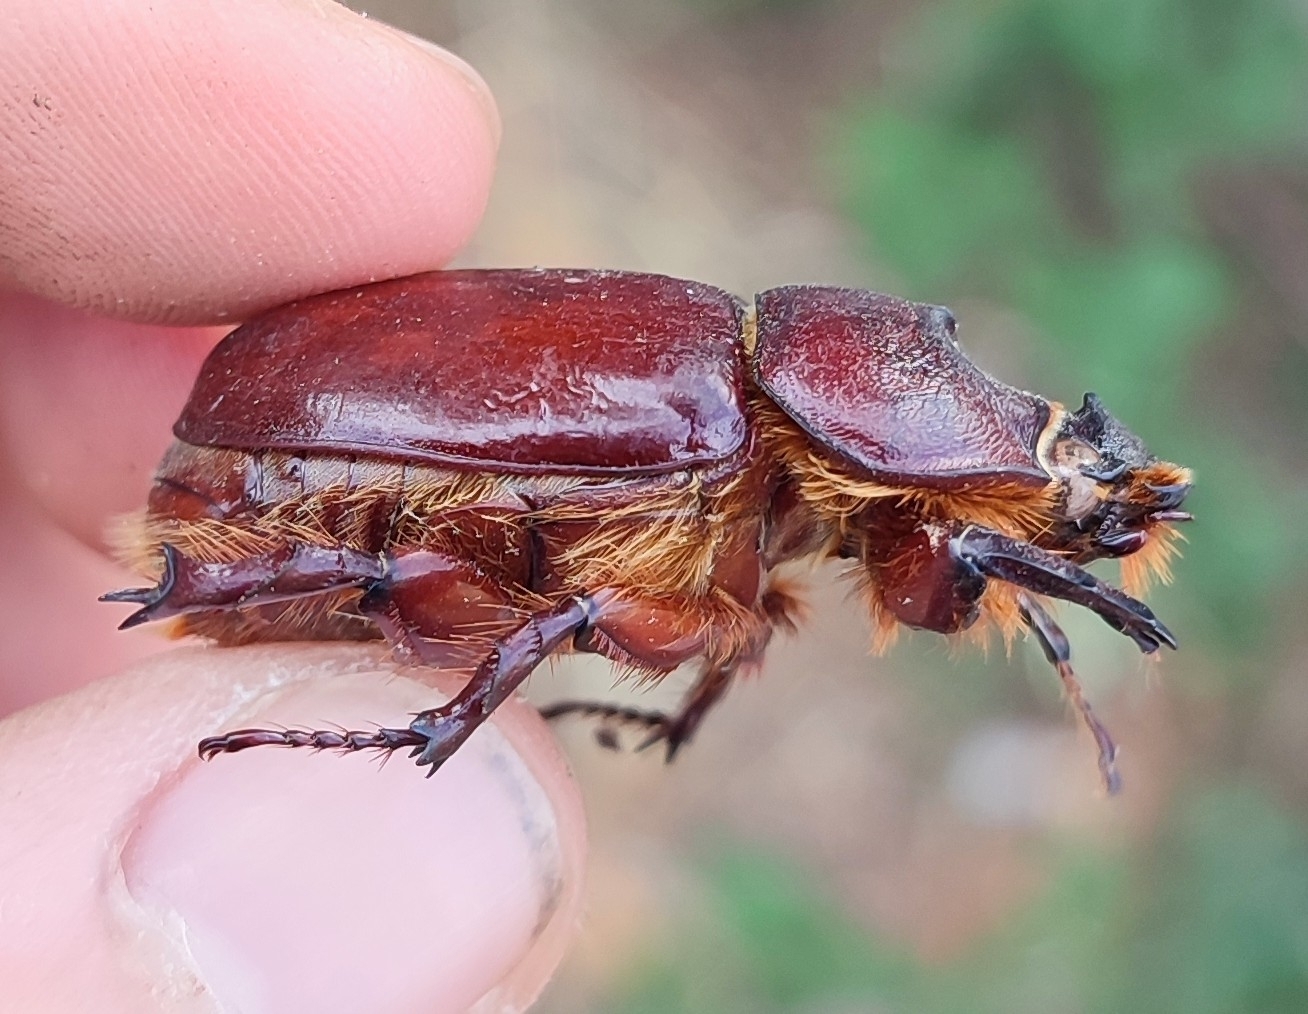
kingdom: Animalia
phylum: Arthropoda
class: Insecta
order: Coleoptera
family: Scarabaeidae
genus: Oryctes
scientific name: Oryctes nasicornis
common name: European rhinoceros beetle
